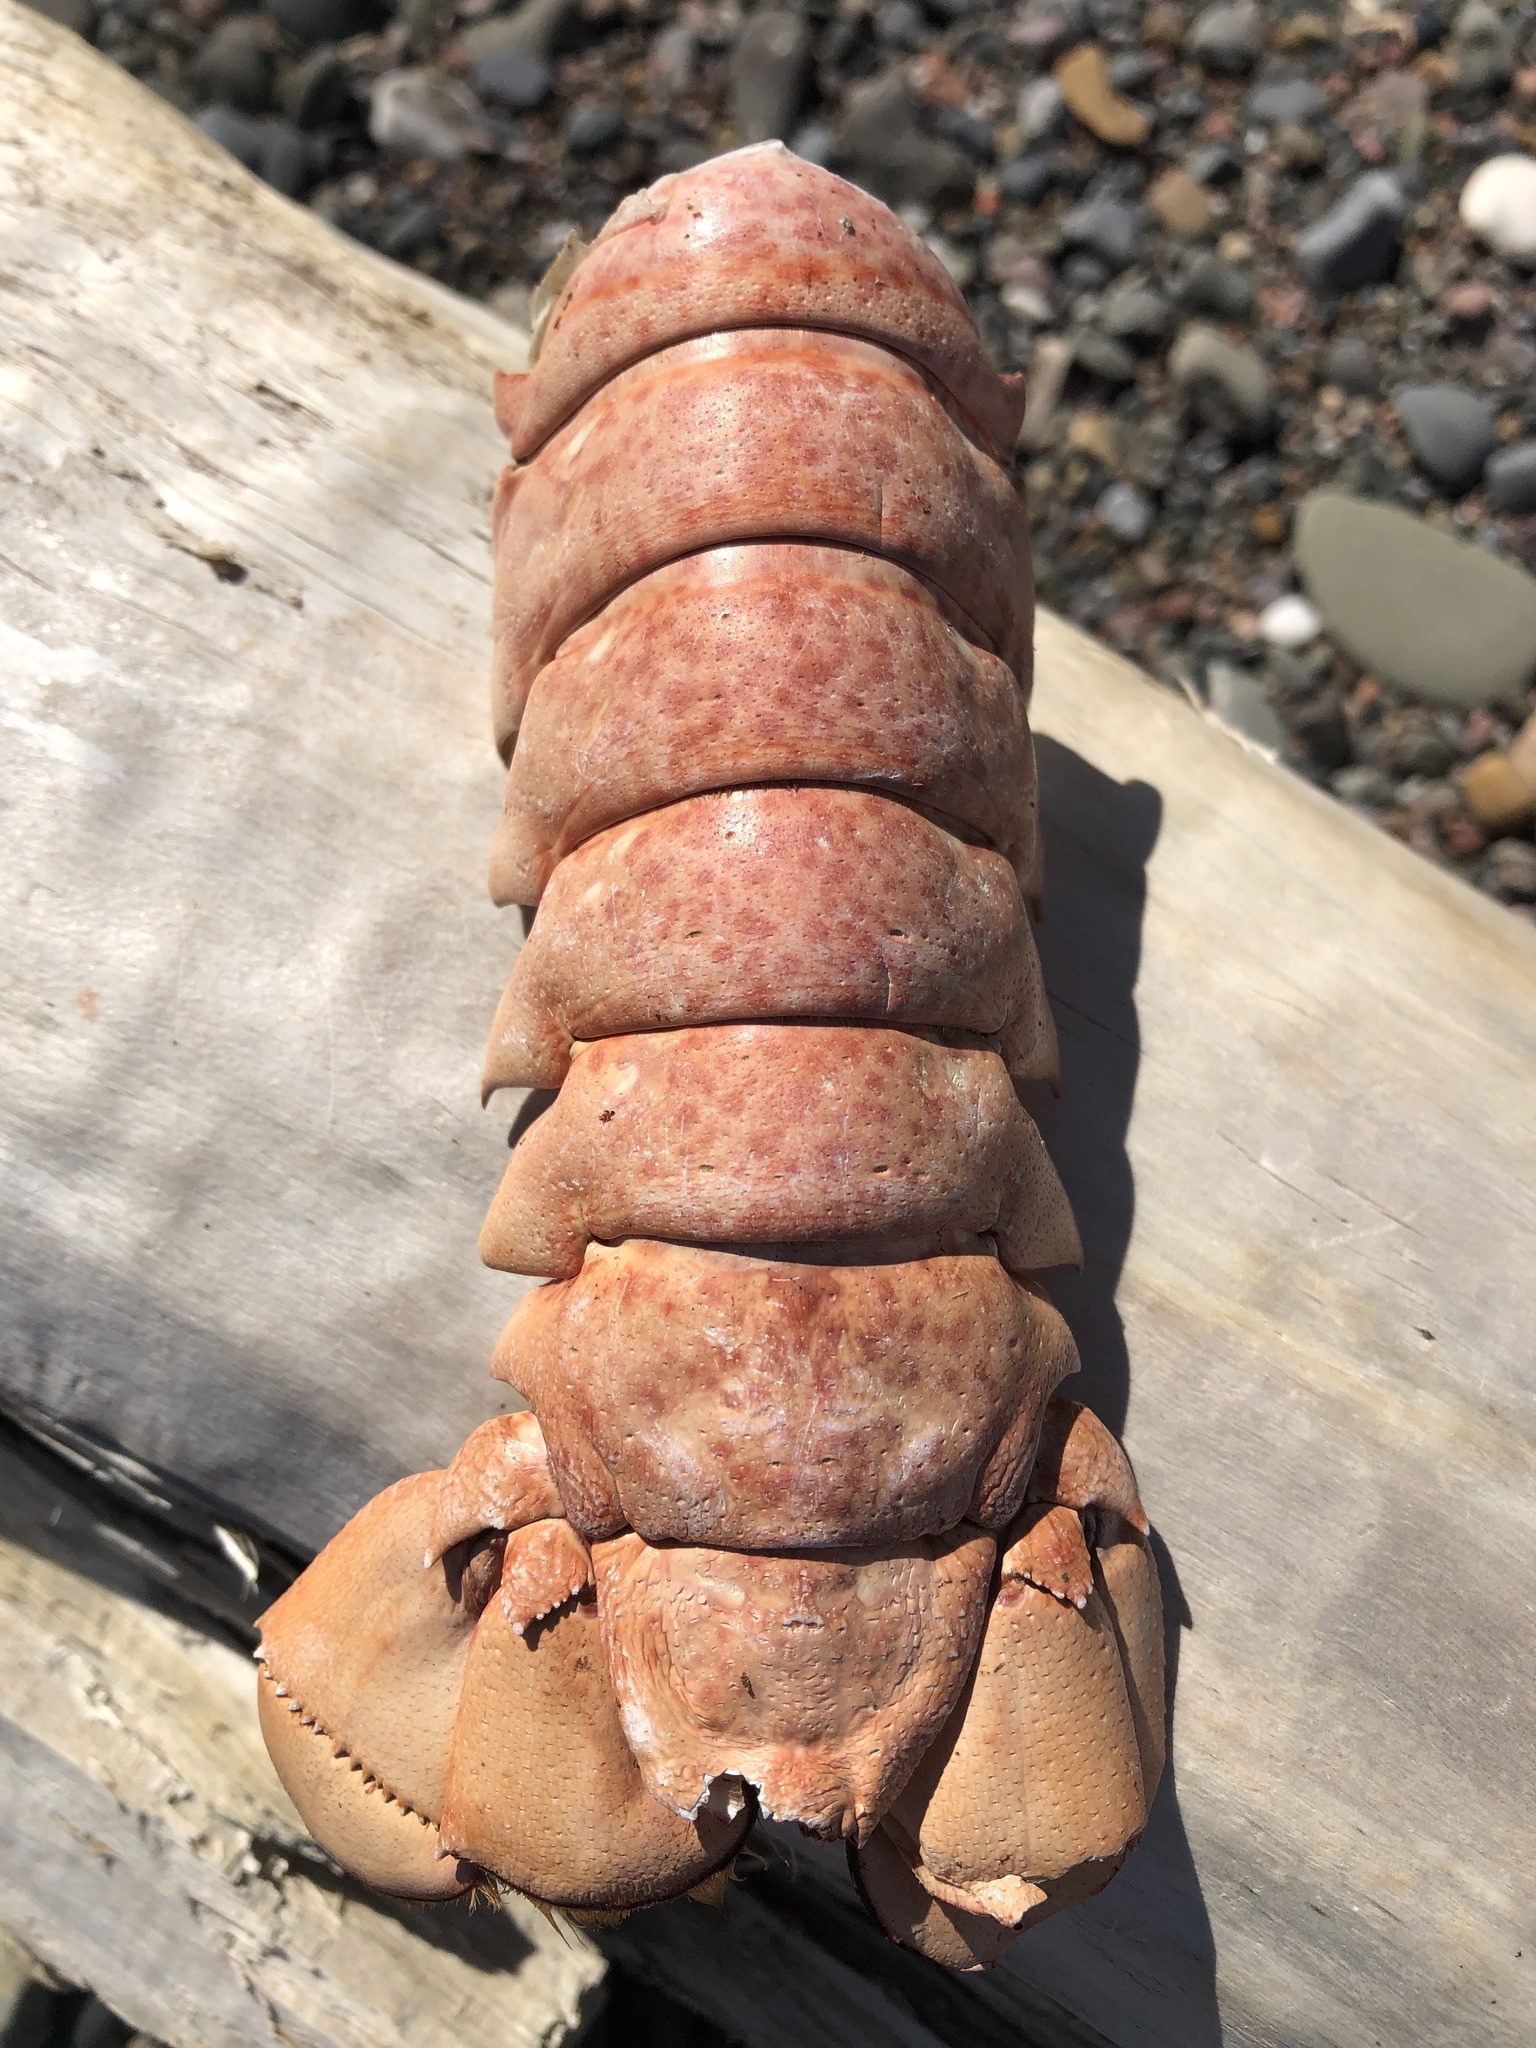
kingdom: Animalia
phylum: Arthropoda
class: Malacostraca
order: Decapoda
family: Nephropidae
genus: Homarus
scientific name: Homarus americanus
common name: American lobster
